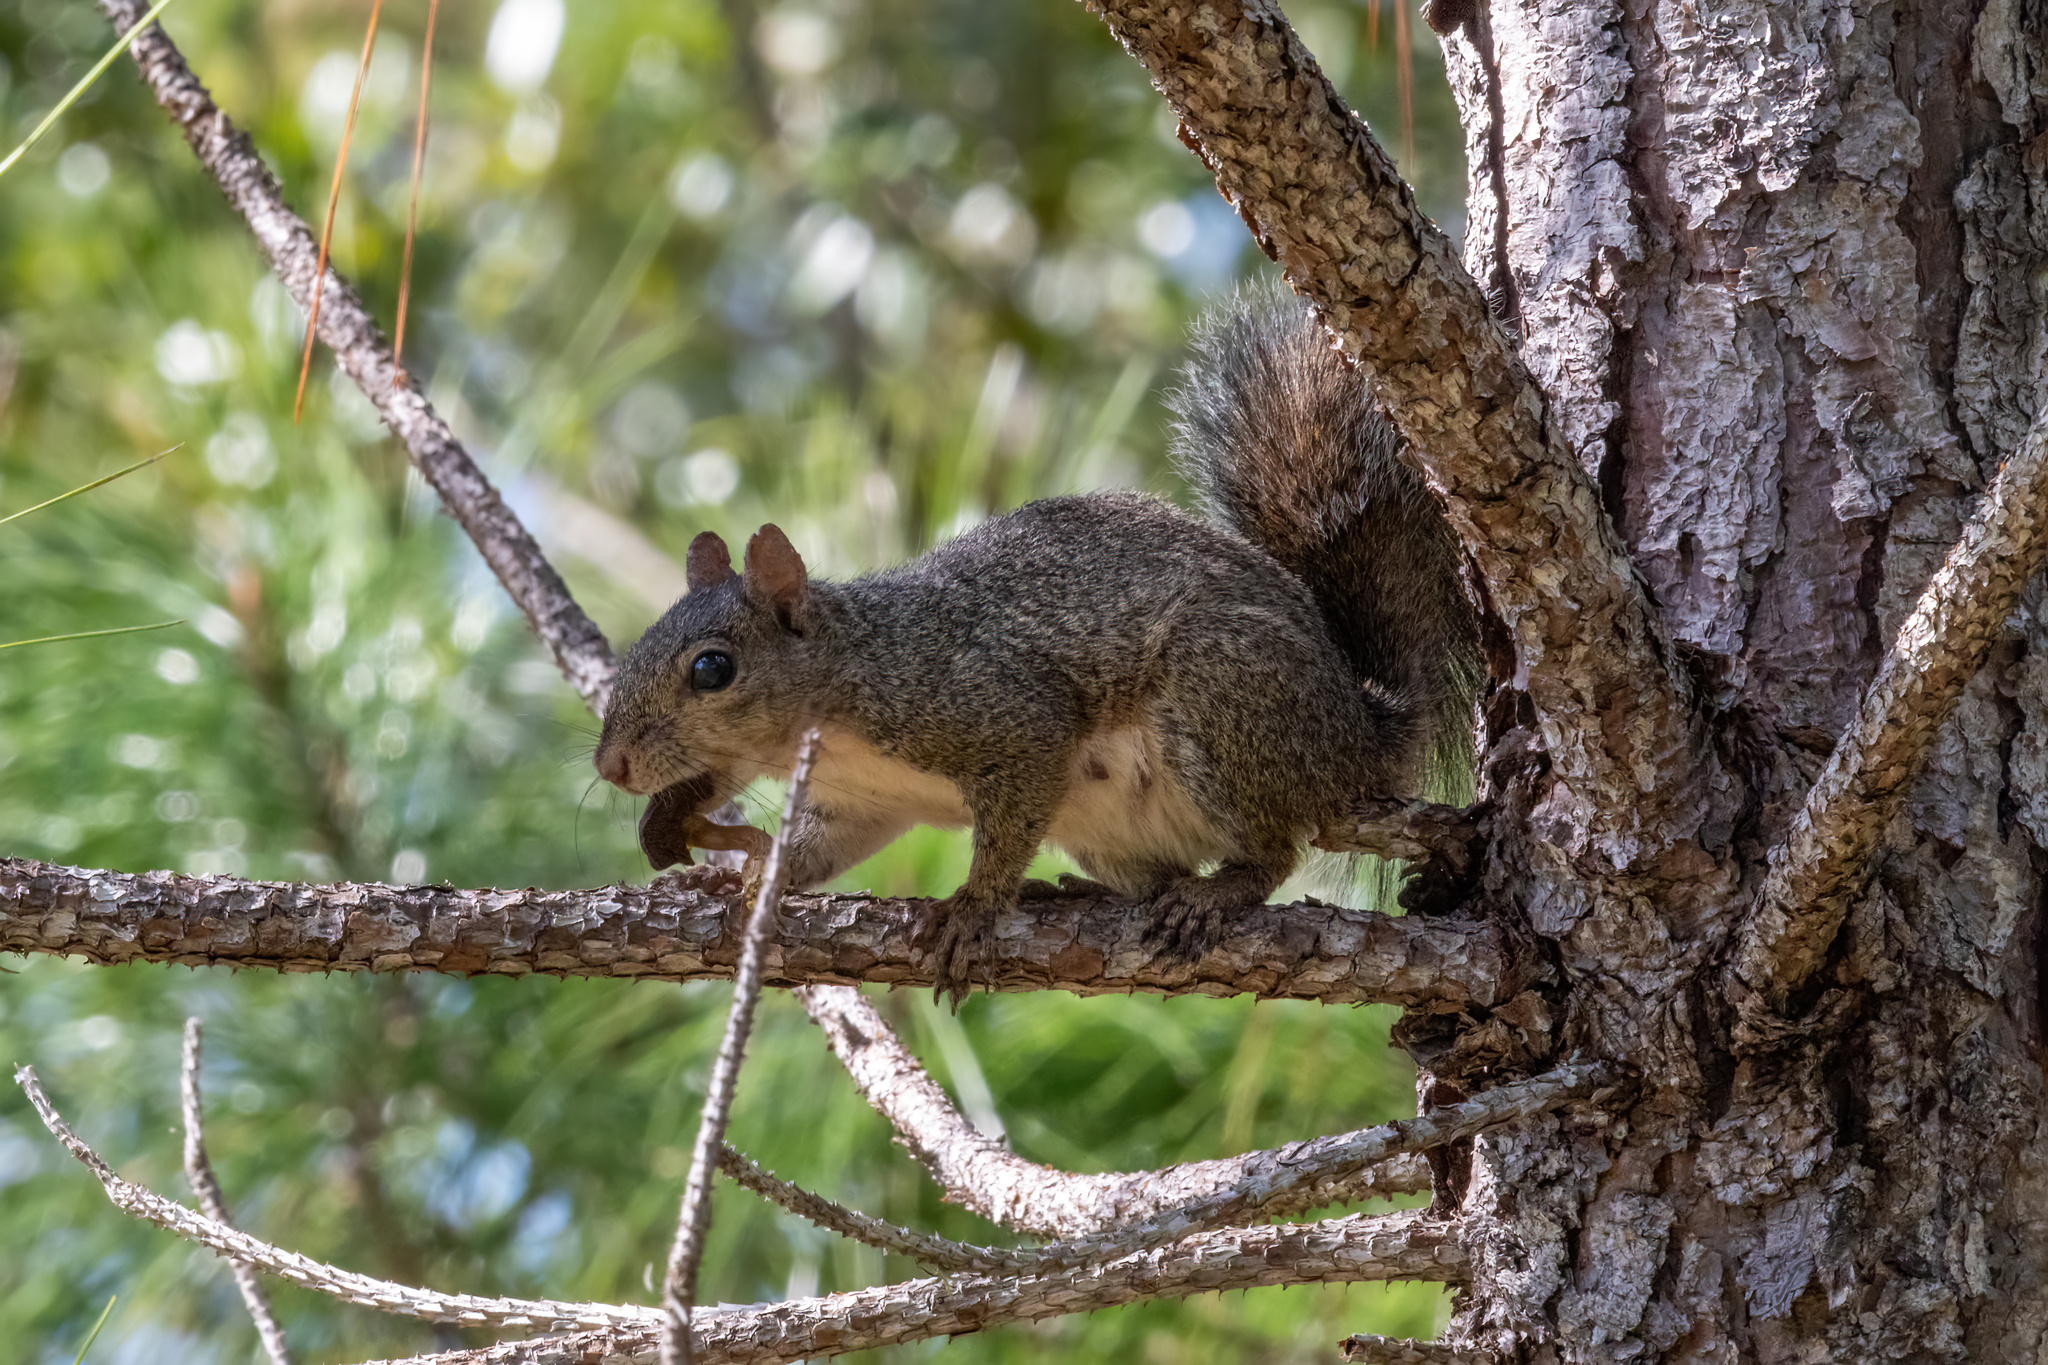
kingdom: Animalia
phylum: Chordata
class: Mammalia
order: Rodentia
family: Sciuridae
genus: Sciurus
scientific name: Sciurus carolinensis
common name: Eastern gray squirrel
